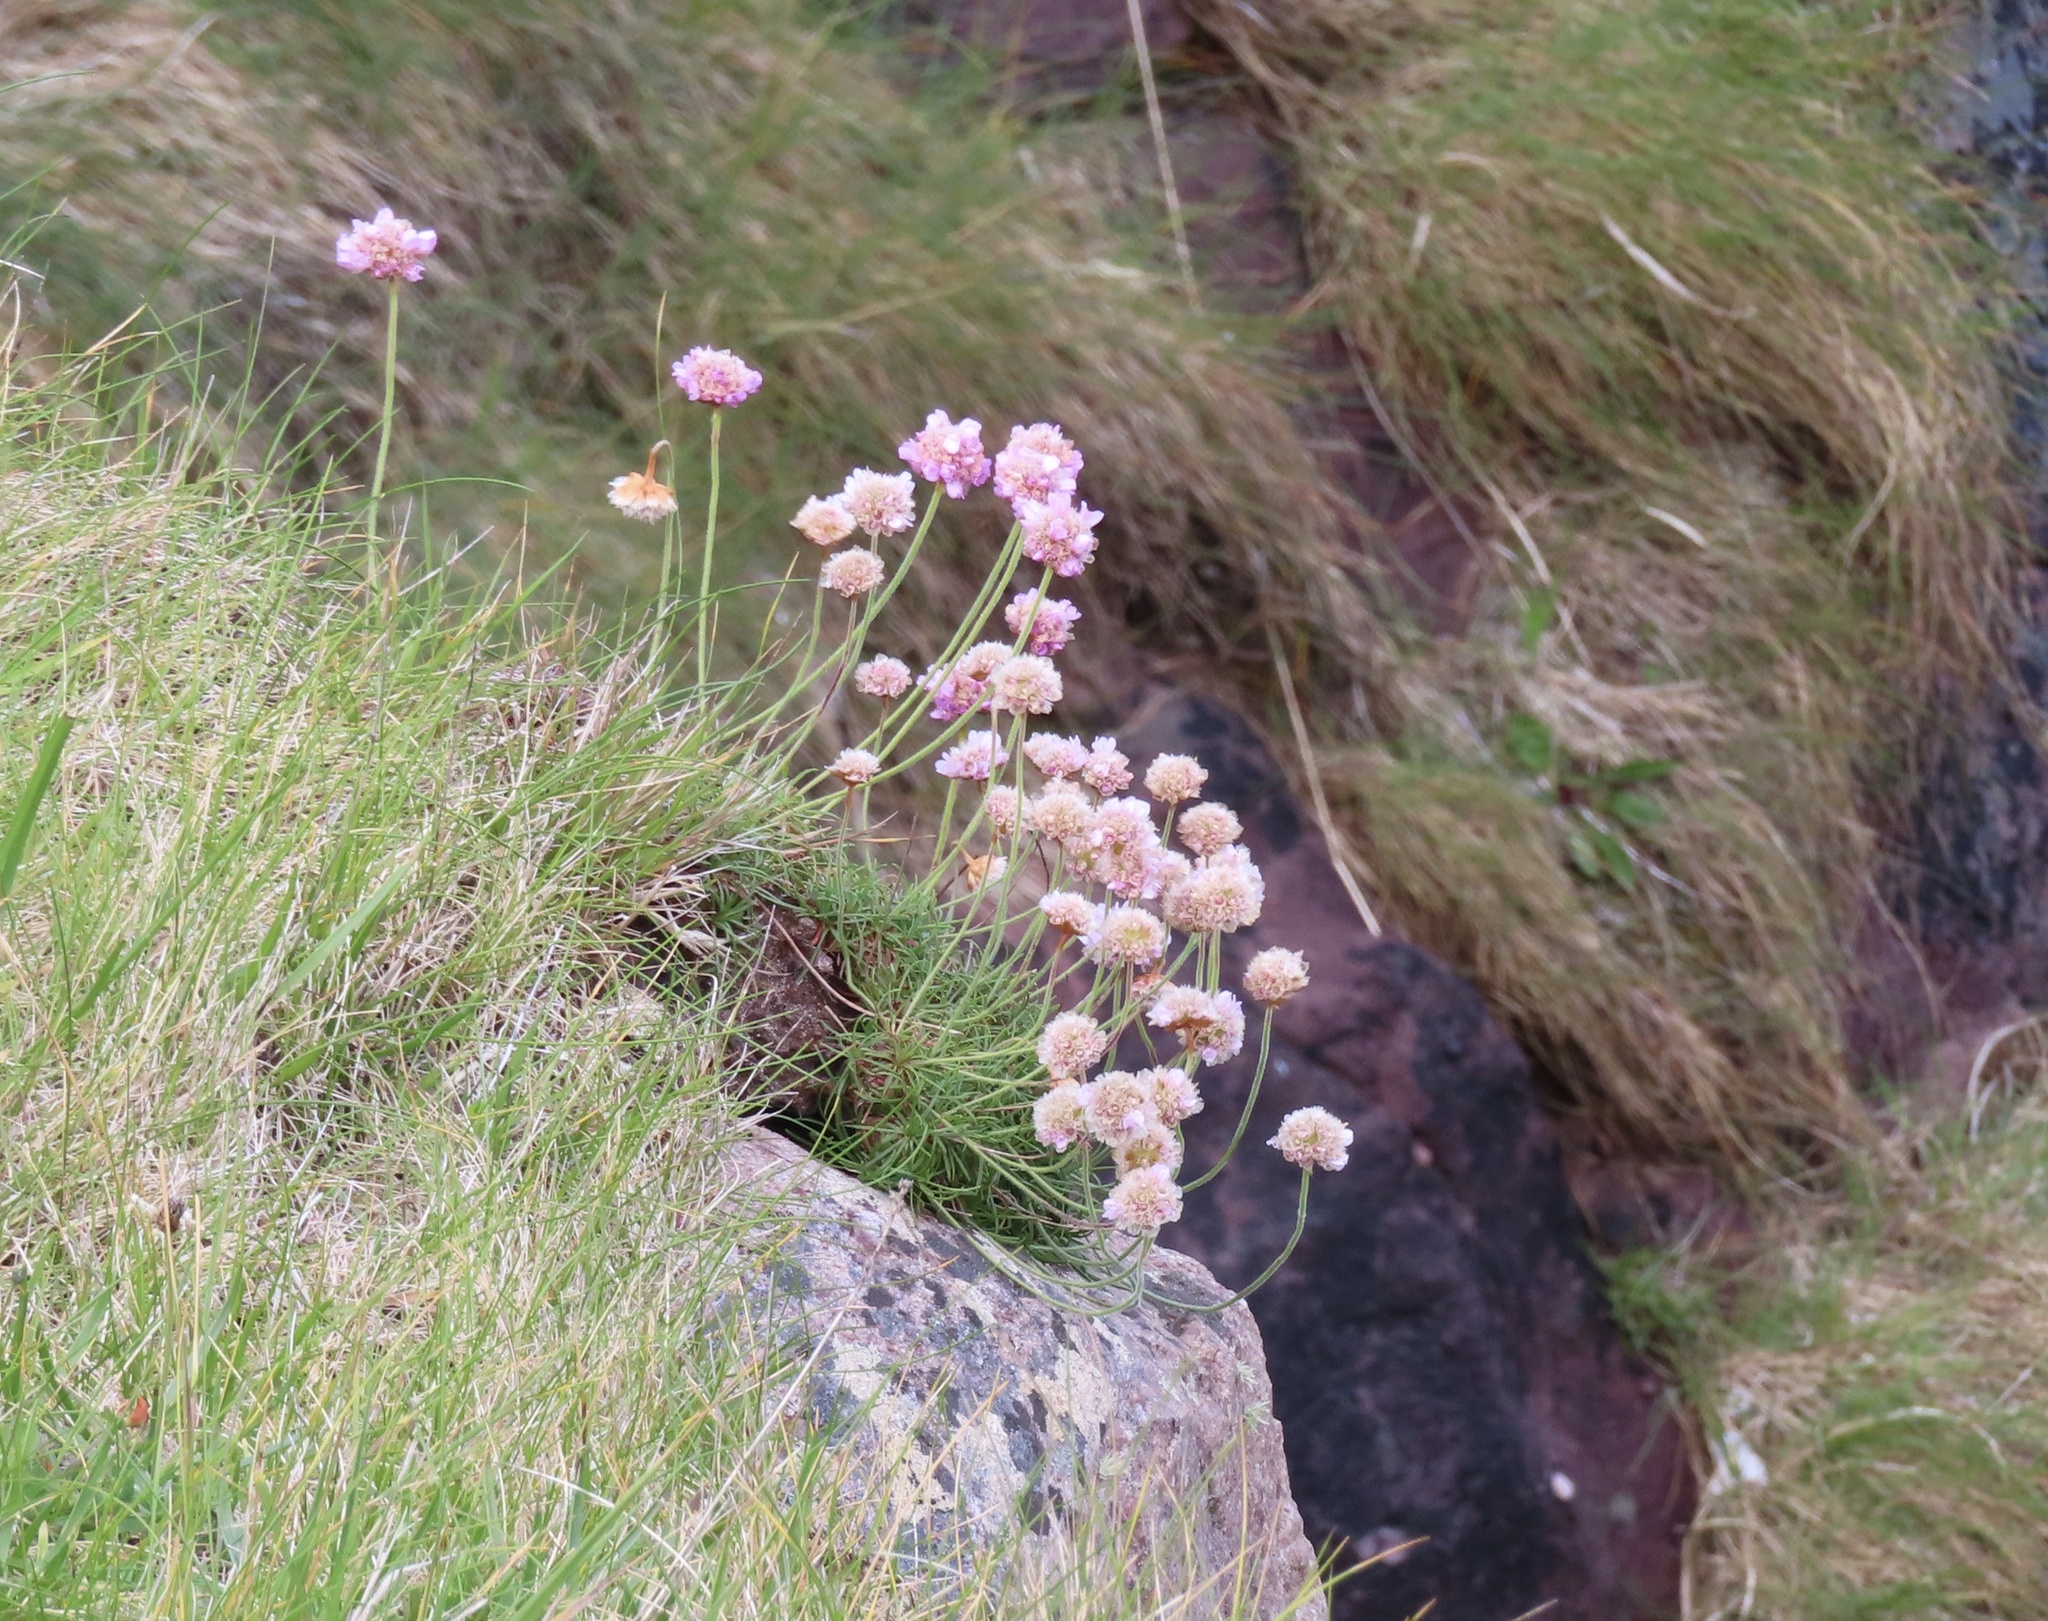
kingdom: Plantae
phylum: Tracheophyta
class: Magnoliopsida
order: Caryophyllales
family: Plumbaginaceae
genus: Armeria
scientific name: Armeria maritima
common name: Thrift
